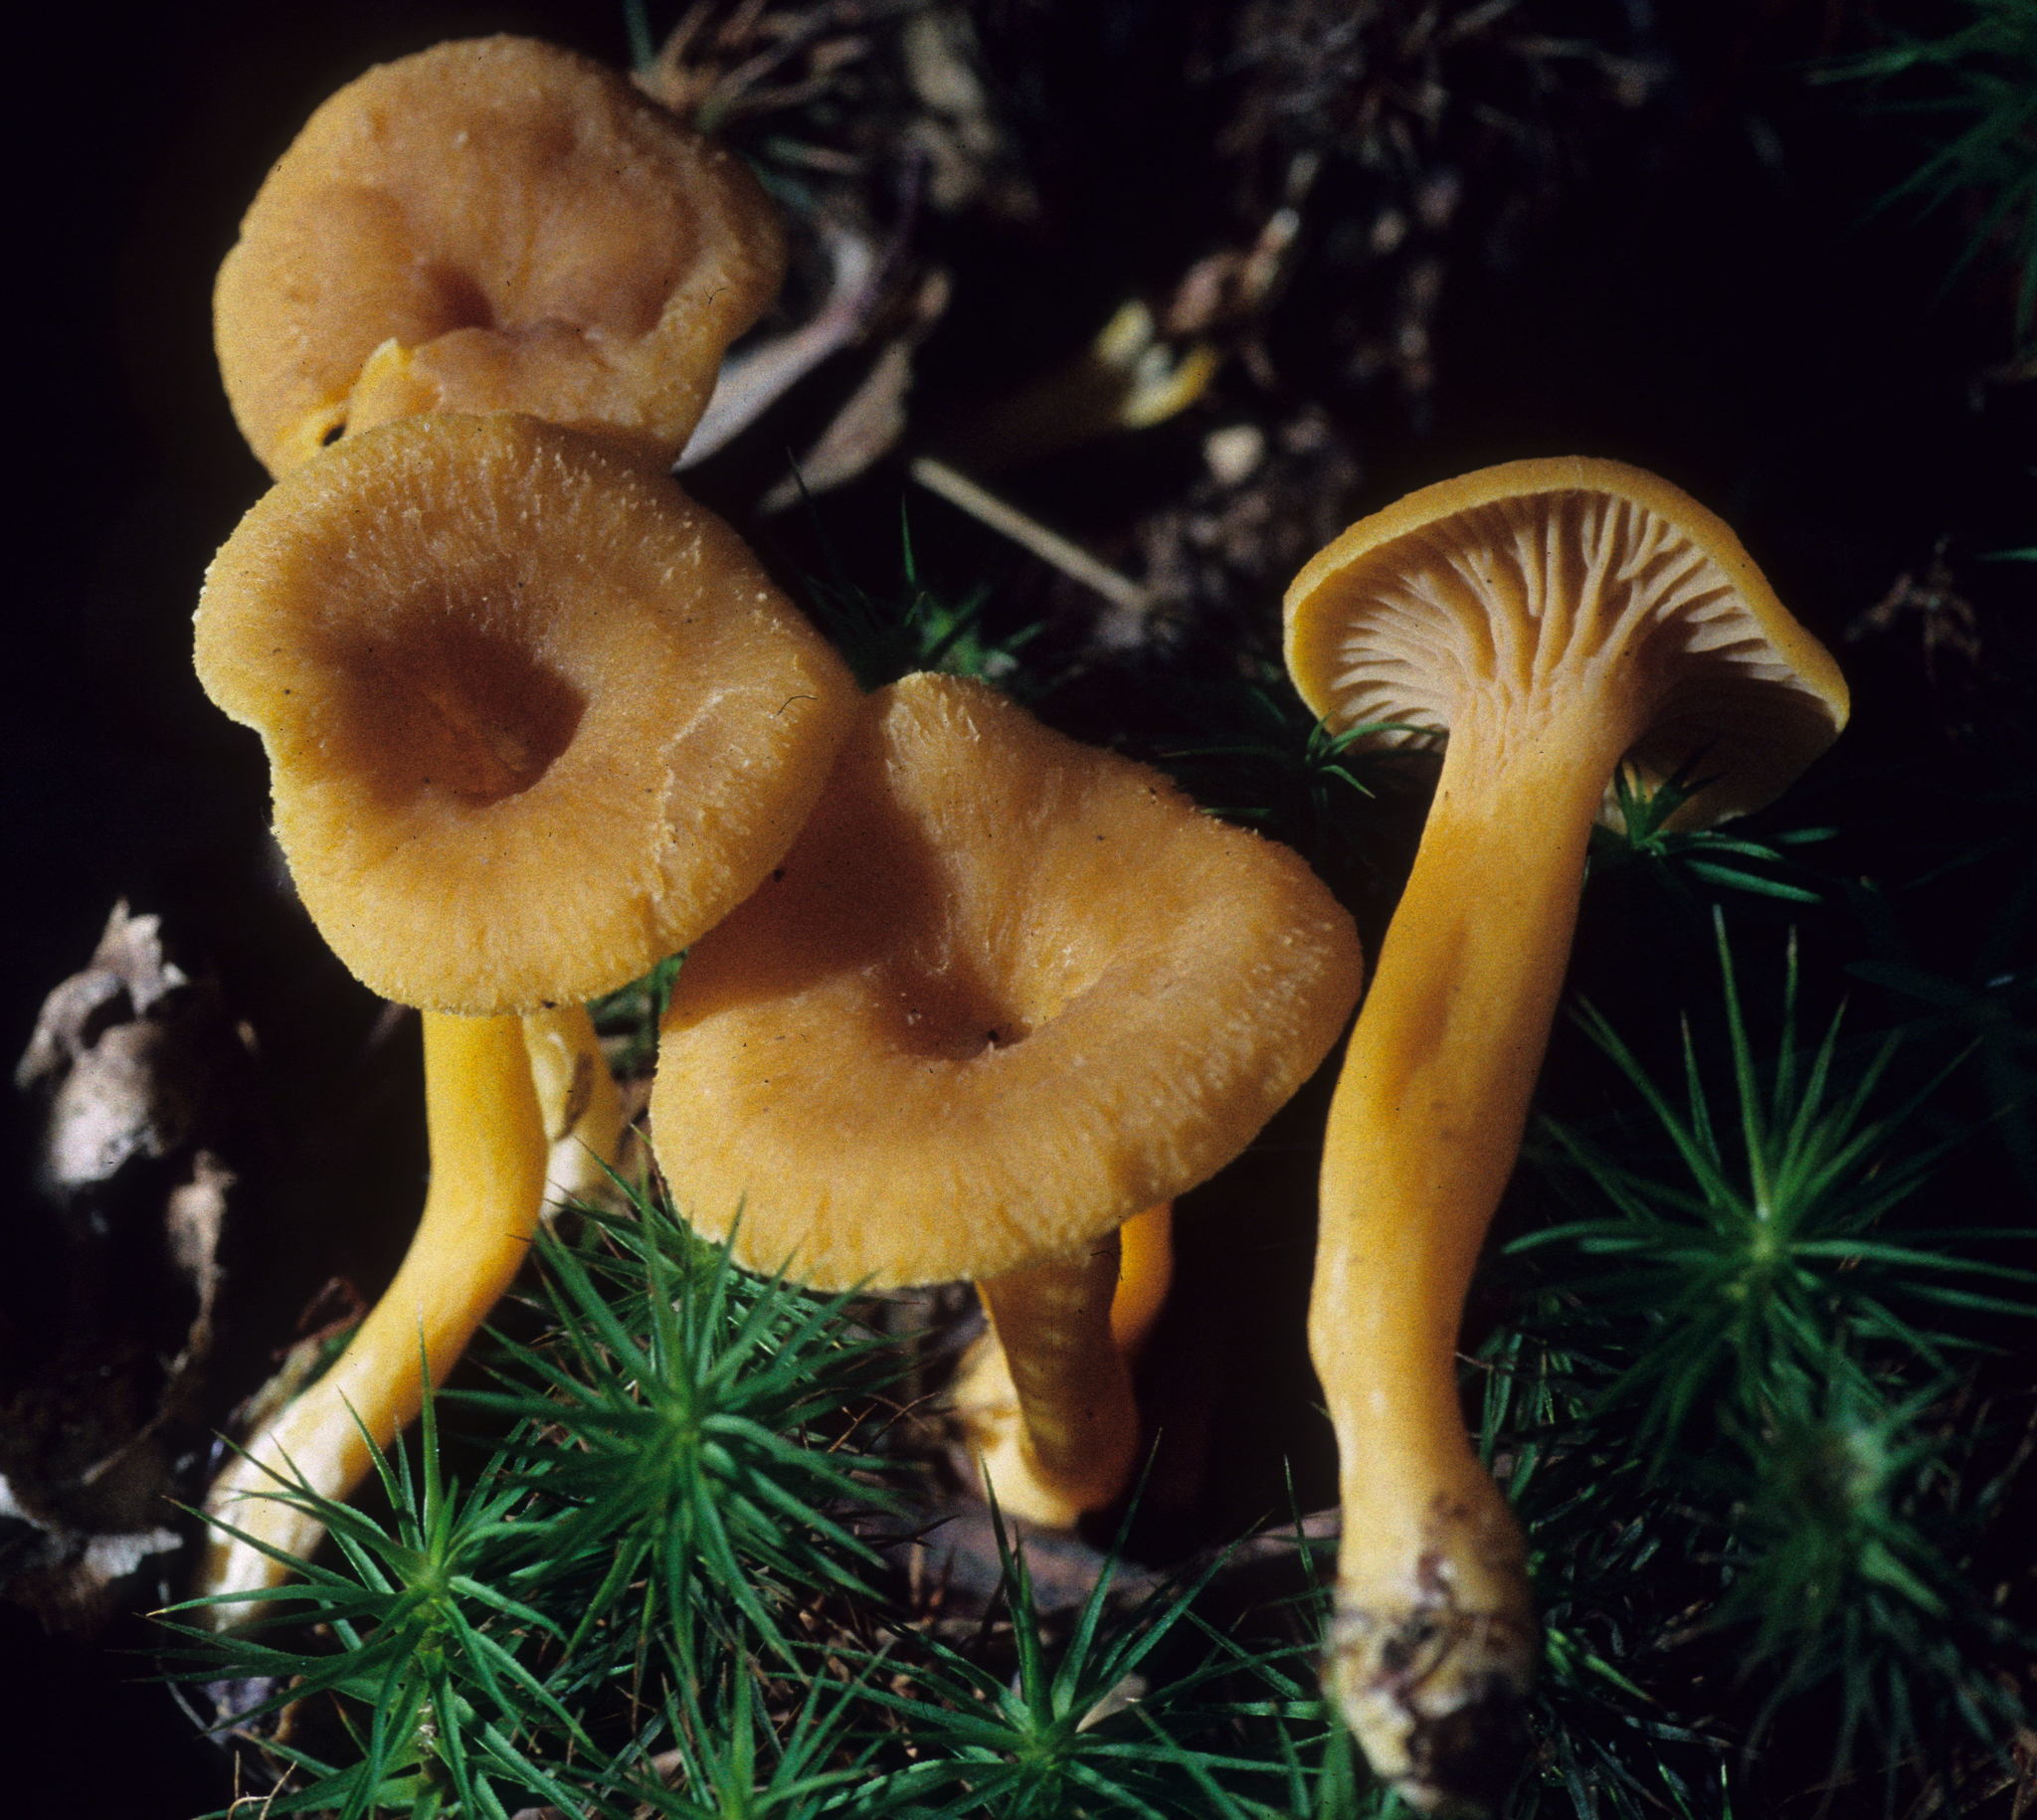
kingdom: Fungi
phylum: Basidiomycota
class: Agaricomycetes
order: Cantharellales
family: Hydnaceae
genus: Craterellus
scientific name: Craterellus ignicolor
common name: Flame chanterelle
